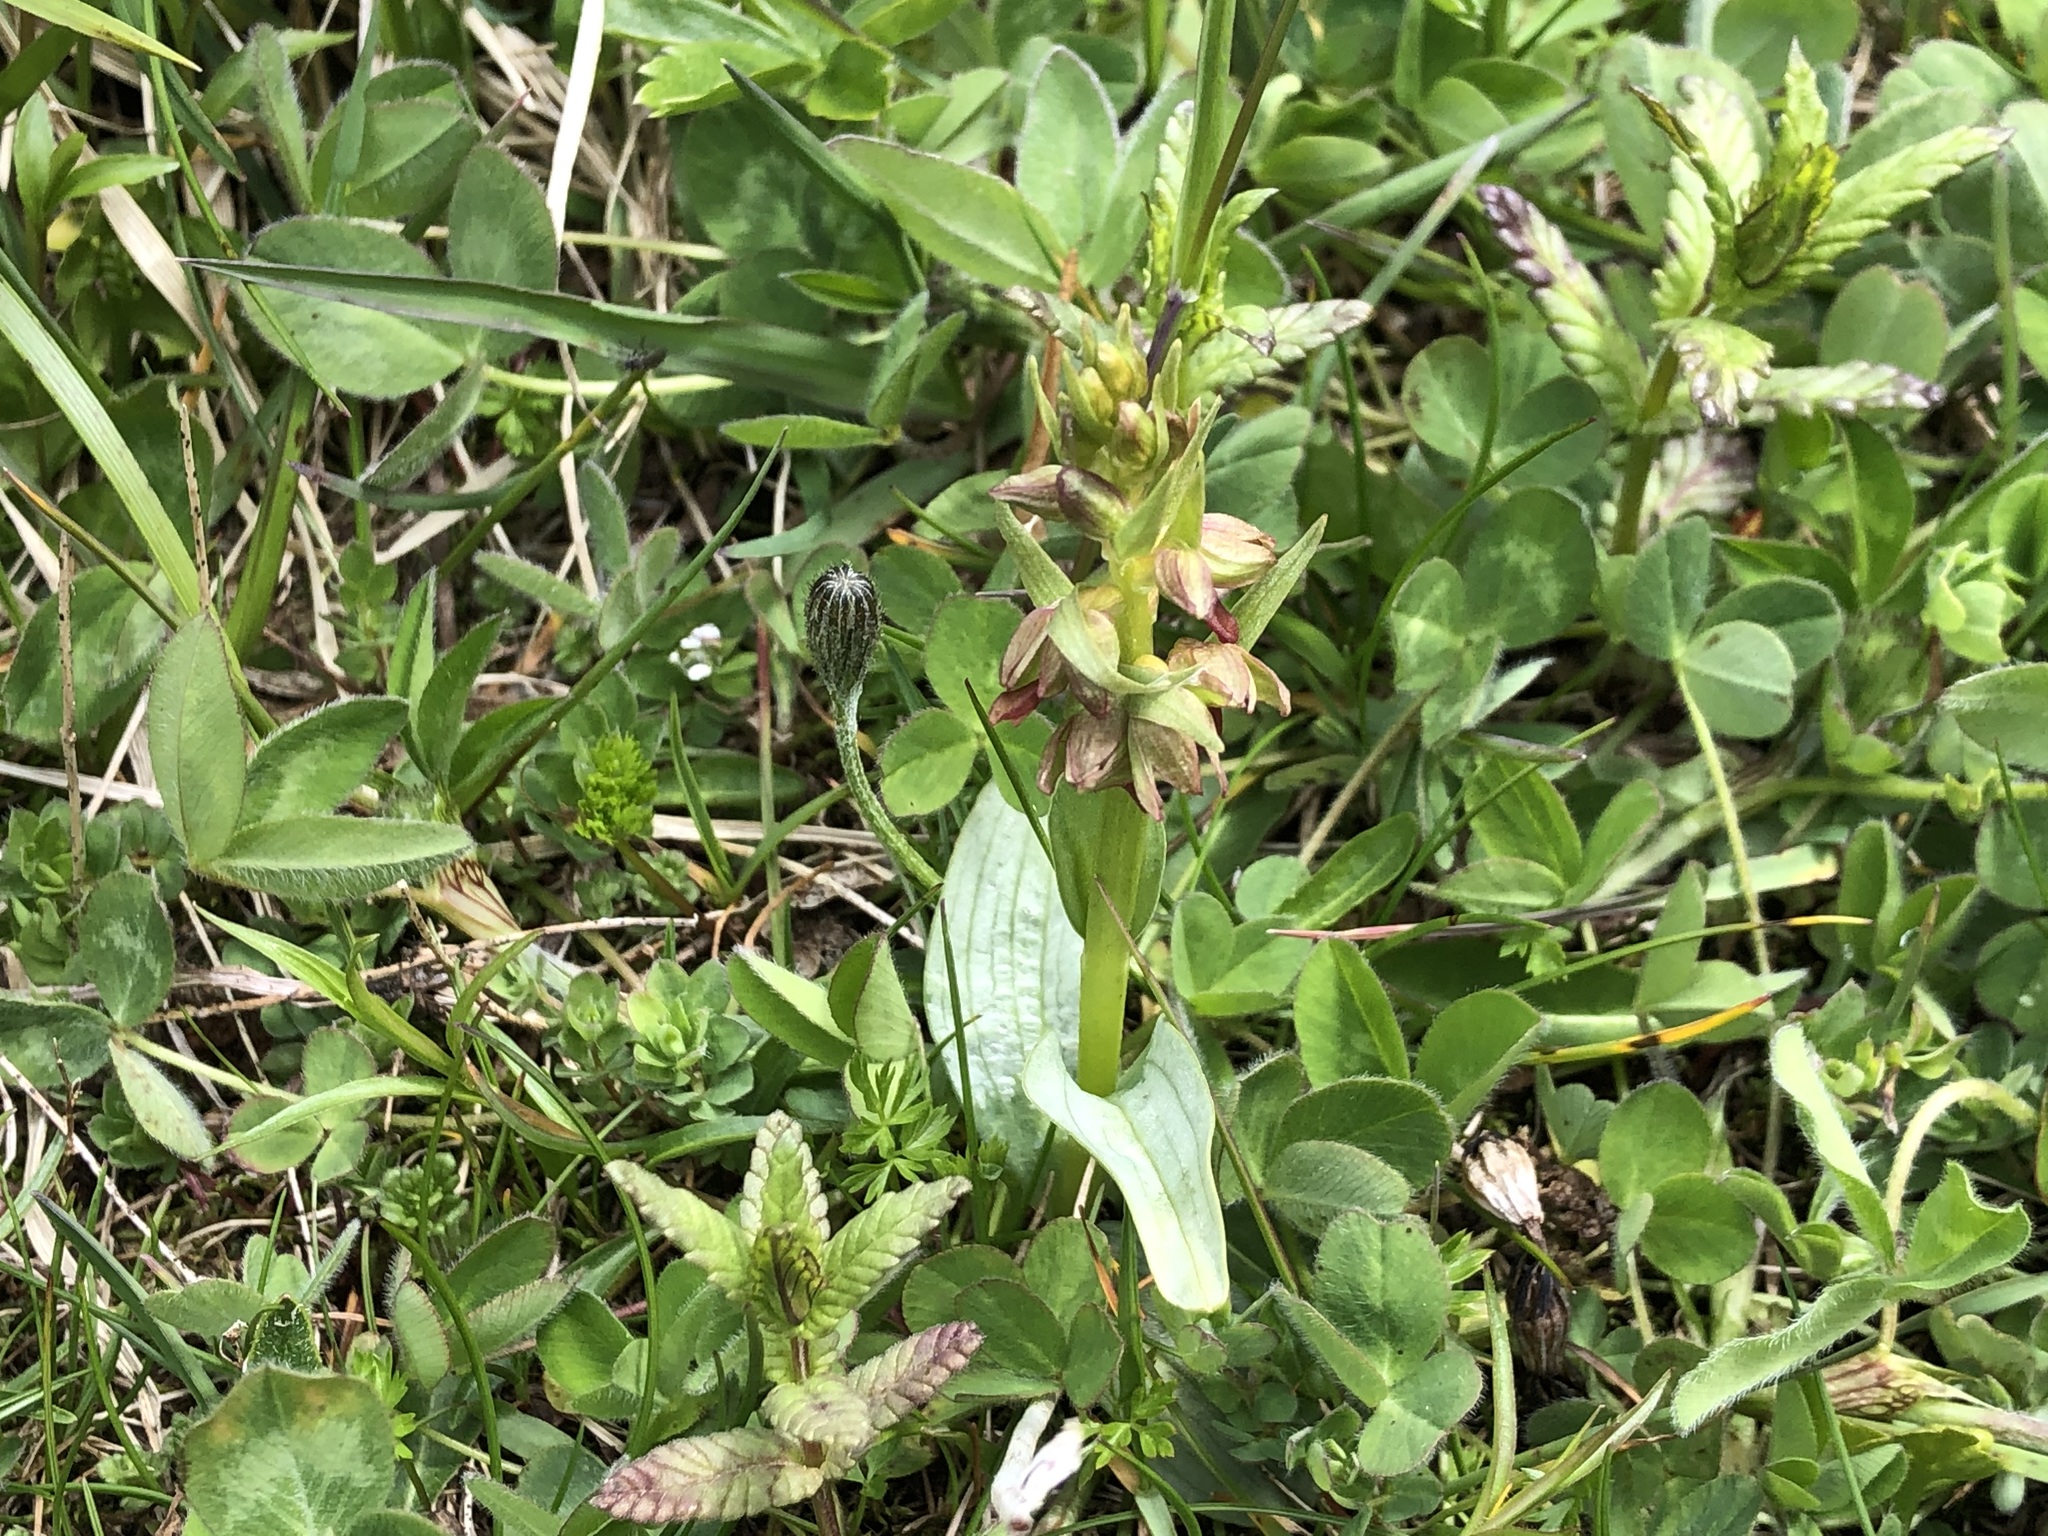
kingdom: Plantae
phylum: Tracheophyta
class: Liliopsida
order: Asparagales
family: Orchidaceae
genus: Dactylorhiza
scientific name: Dactylorhiza viridis
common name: Longbract frog orchid
